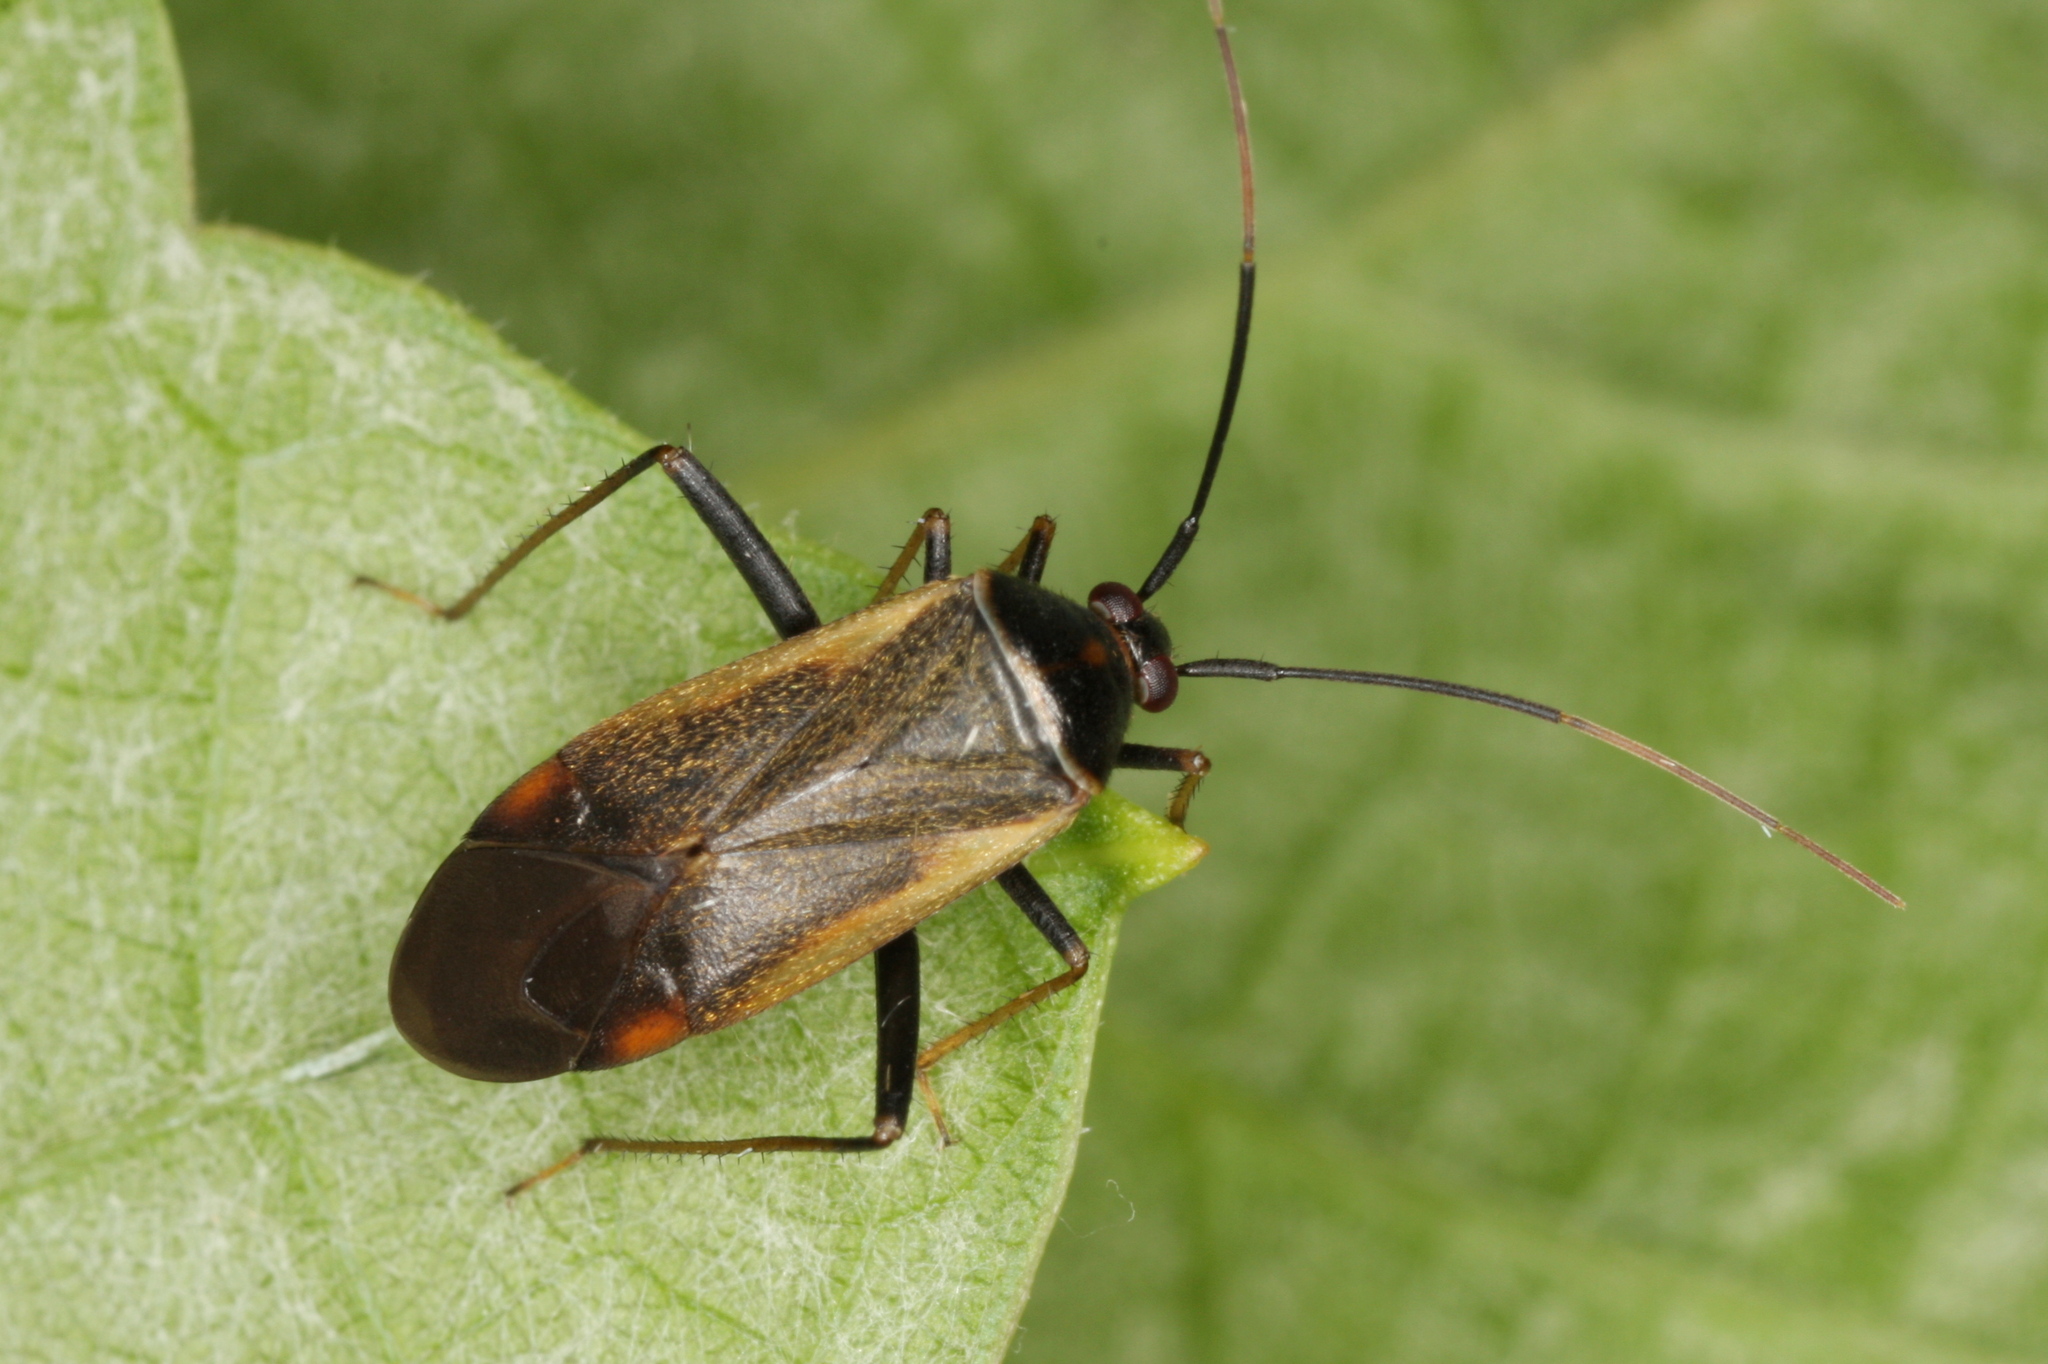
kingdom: Animalia
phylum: Arthropoda
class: Insecta
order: Hemiptera
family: Miridae
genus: Adelphocoris
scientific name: Adelphocoris seticornis
